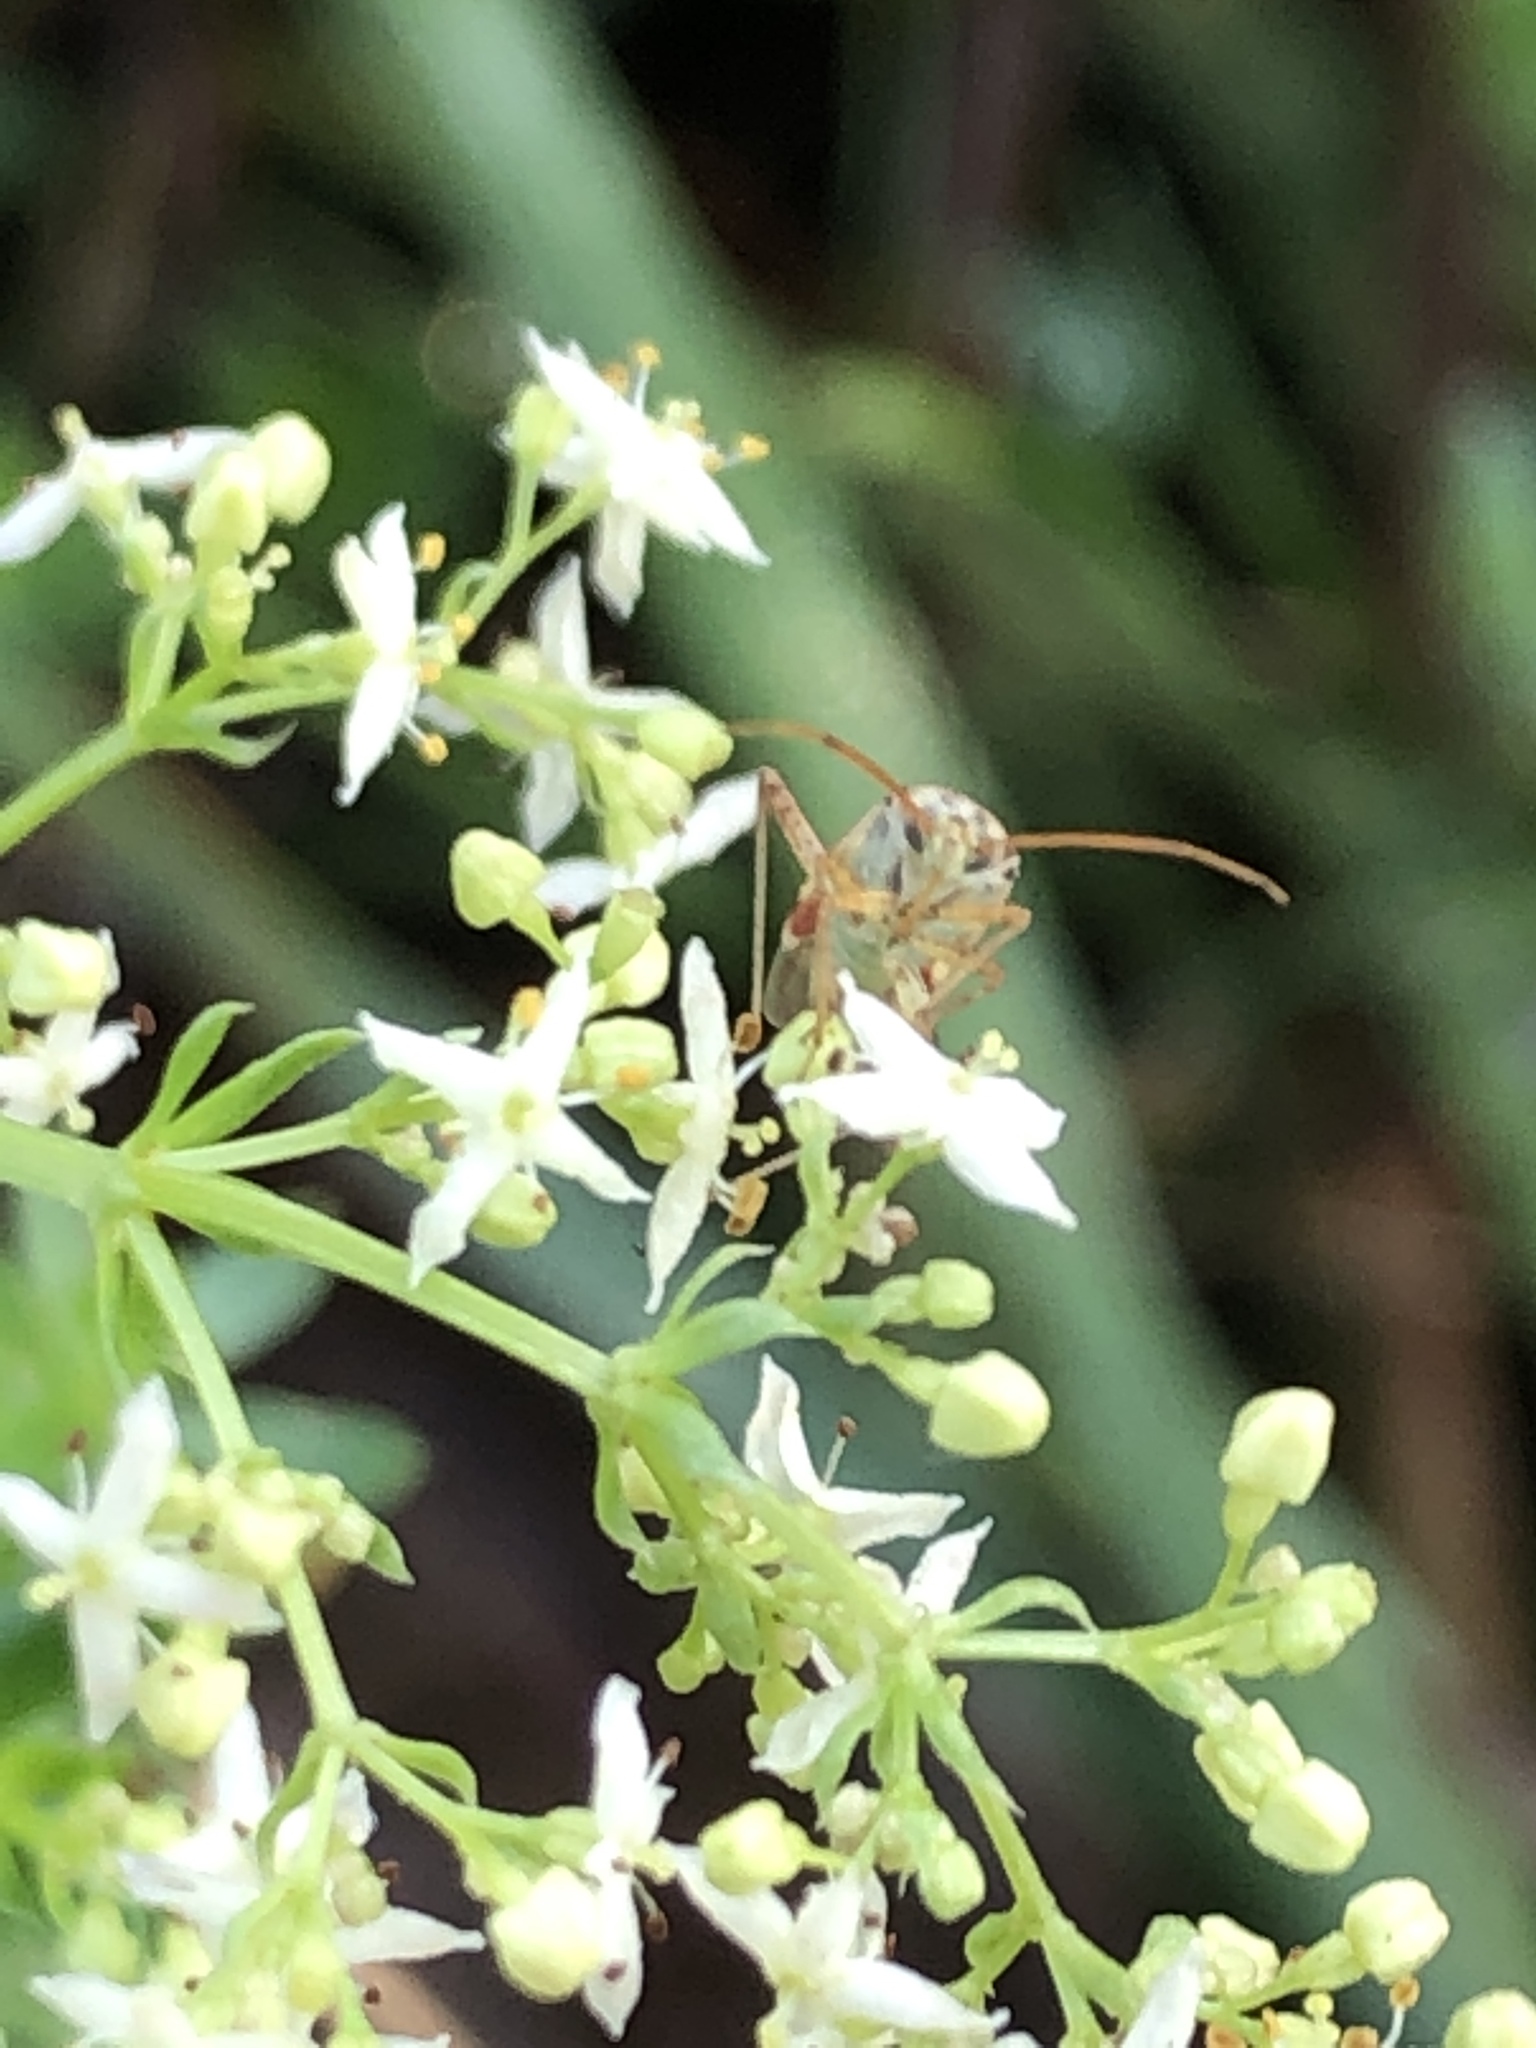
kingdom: Animalia
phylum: Arthropoda
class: Insecta
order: Hemiptera
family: Miridae
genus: Polymerus
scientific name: Polymerus vulneratus
